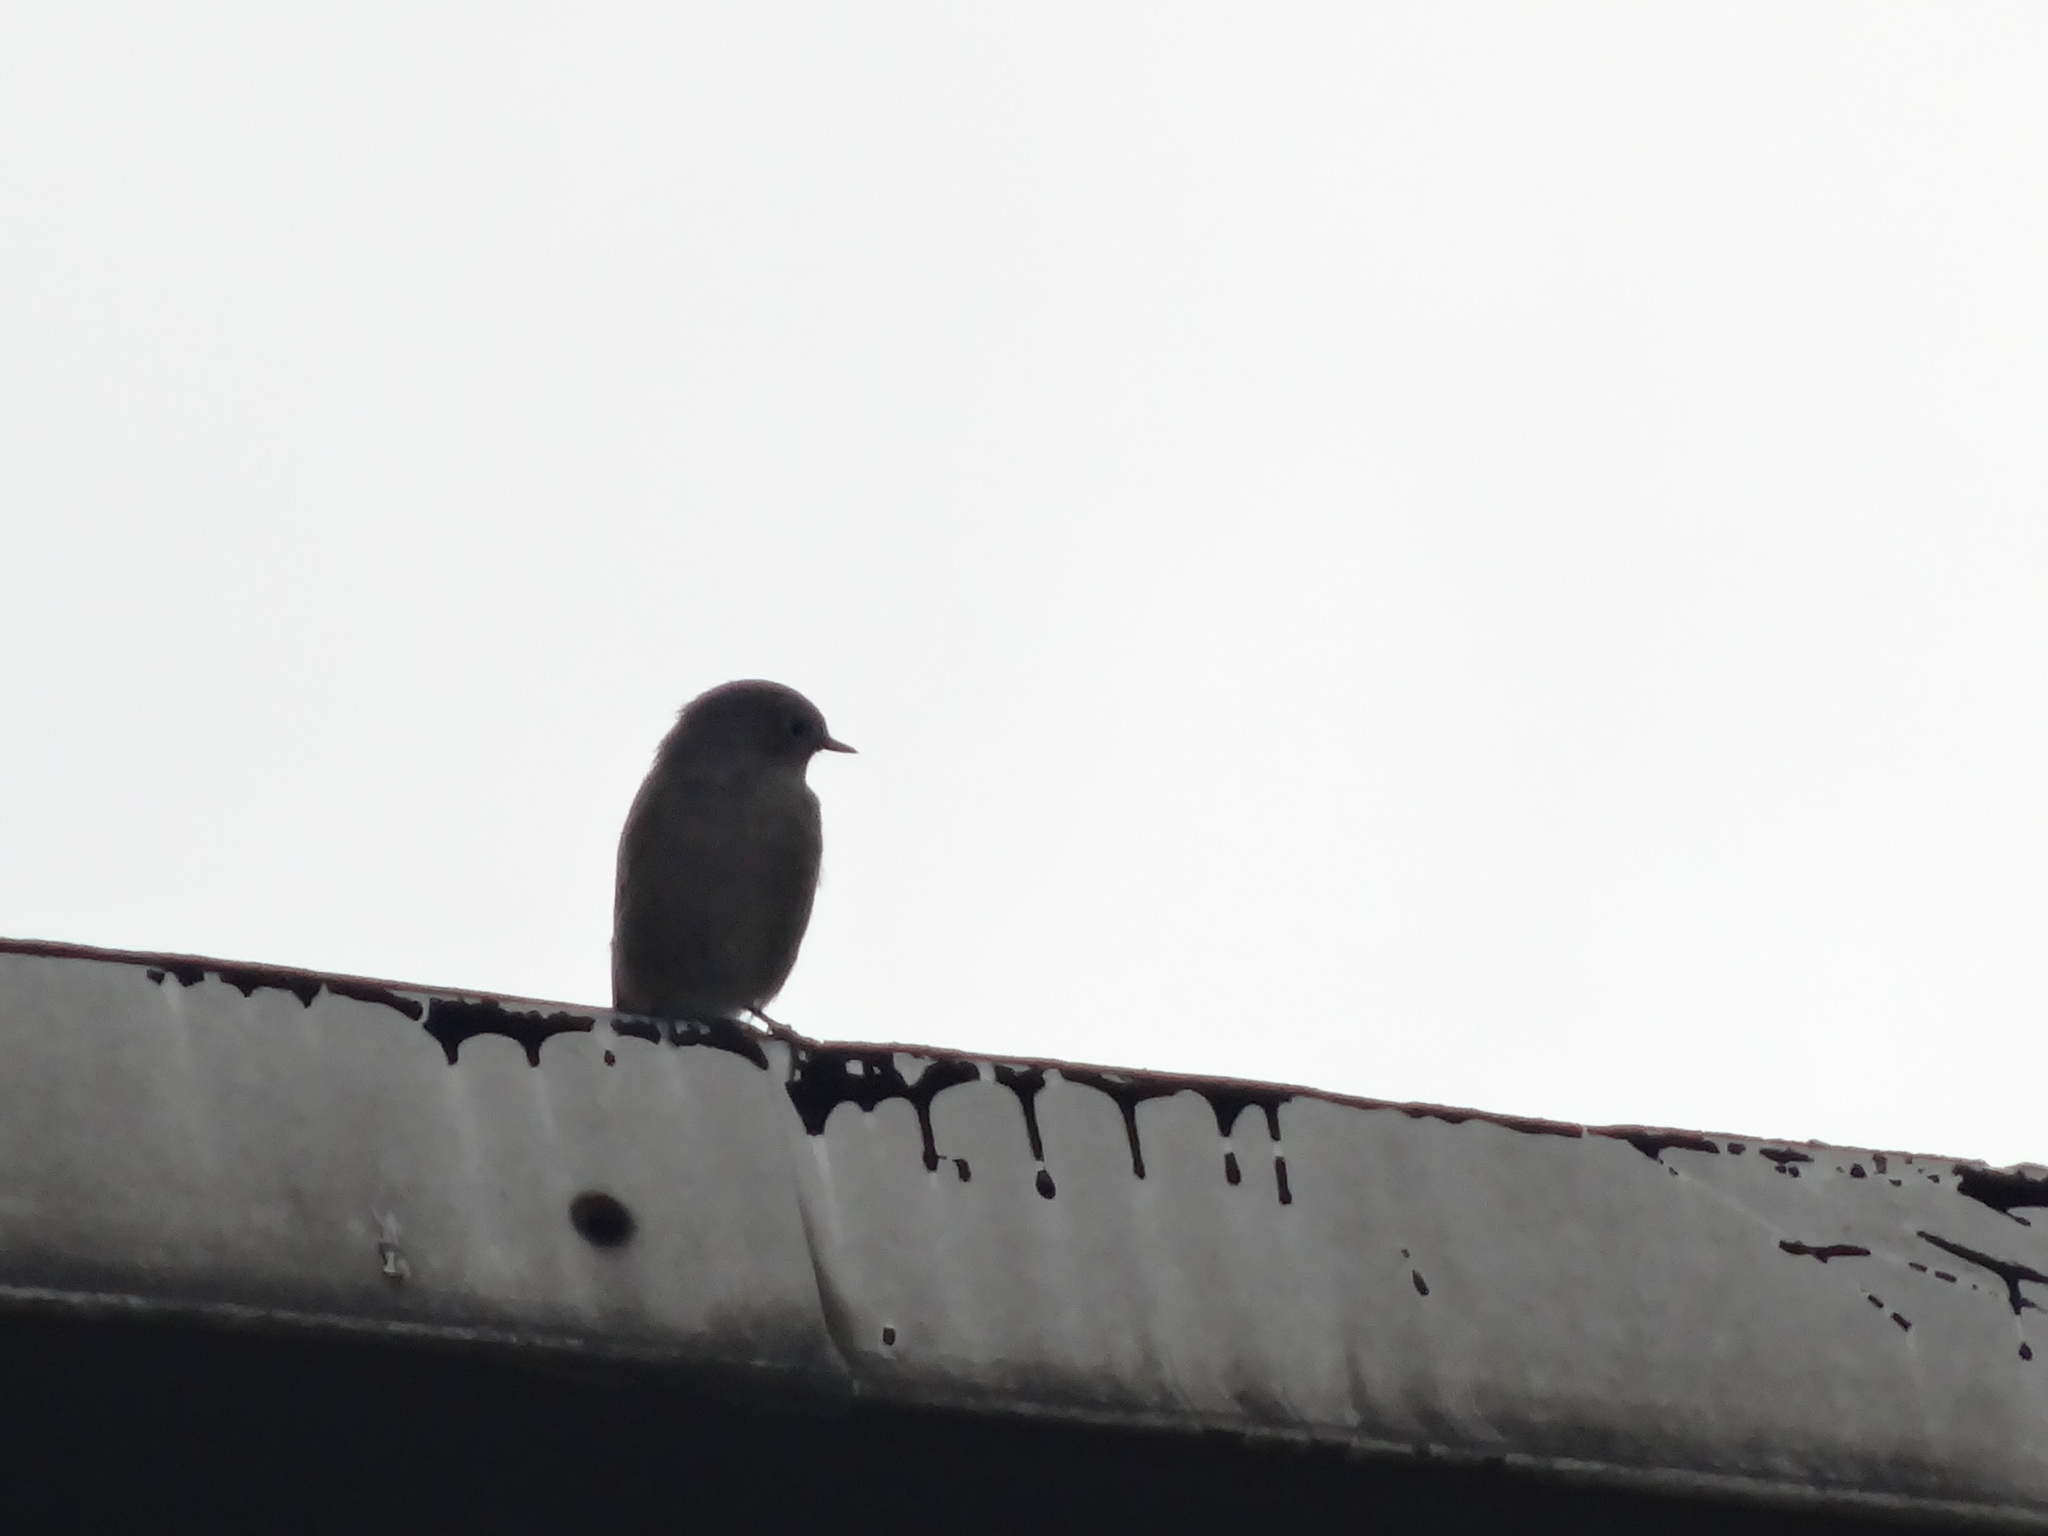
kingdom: Animalia
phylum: Chordata
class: Aves
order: Passeriformes
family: Muscicapidae
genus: Phoenicurus
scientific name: Phoenicurus ochruros
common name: Black redstart
